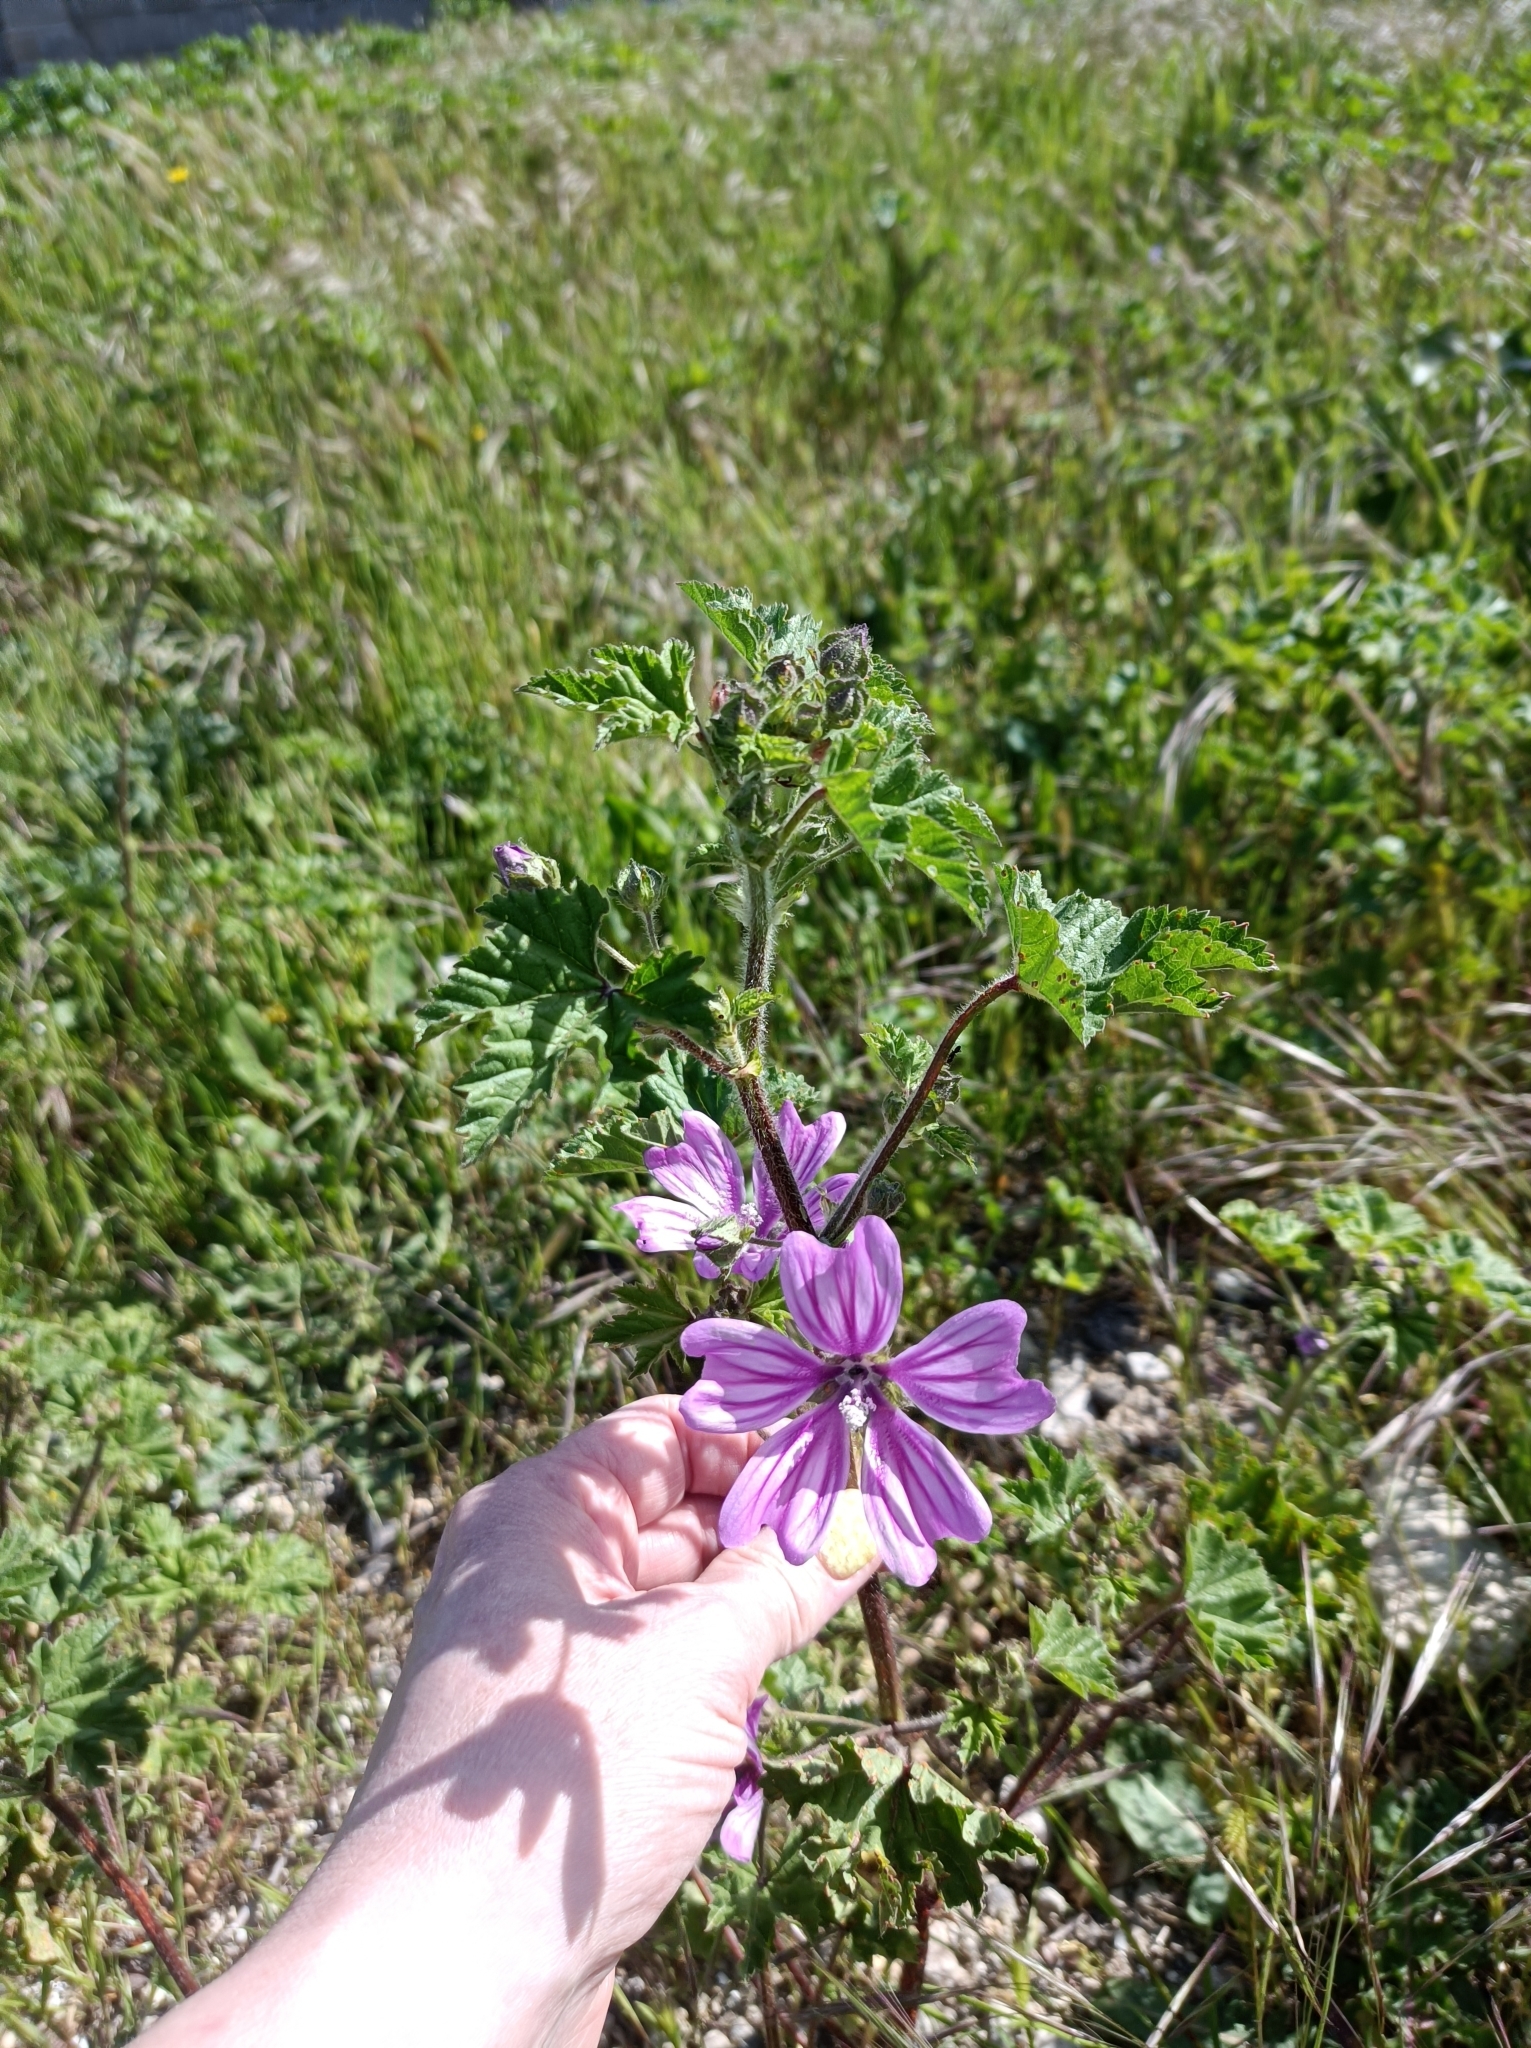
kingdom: Plantae
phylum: Tracheophyta
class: Magnoliopsida
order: Malvales
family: Malvaceae
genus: Malva
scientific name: Malva sylvestris
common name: Common mallow
